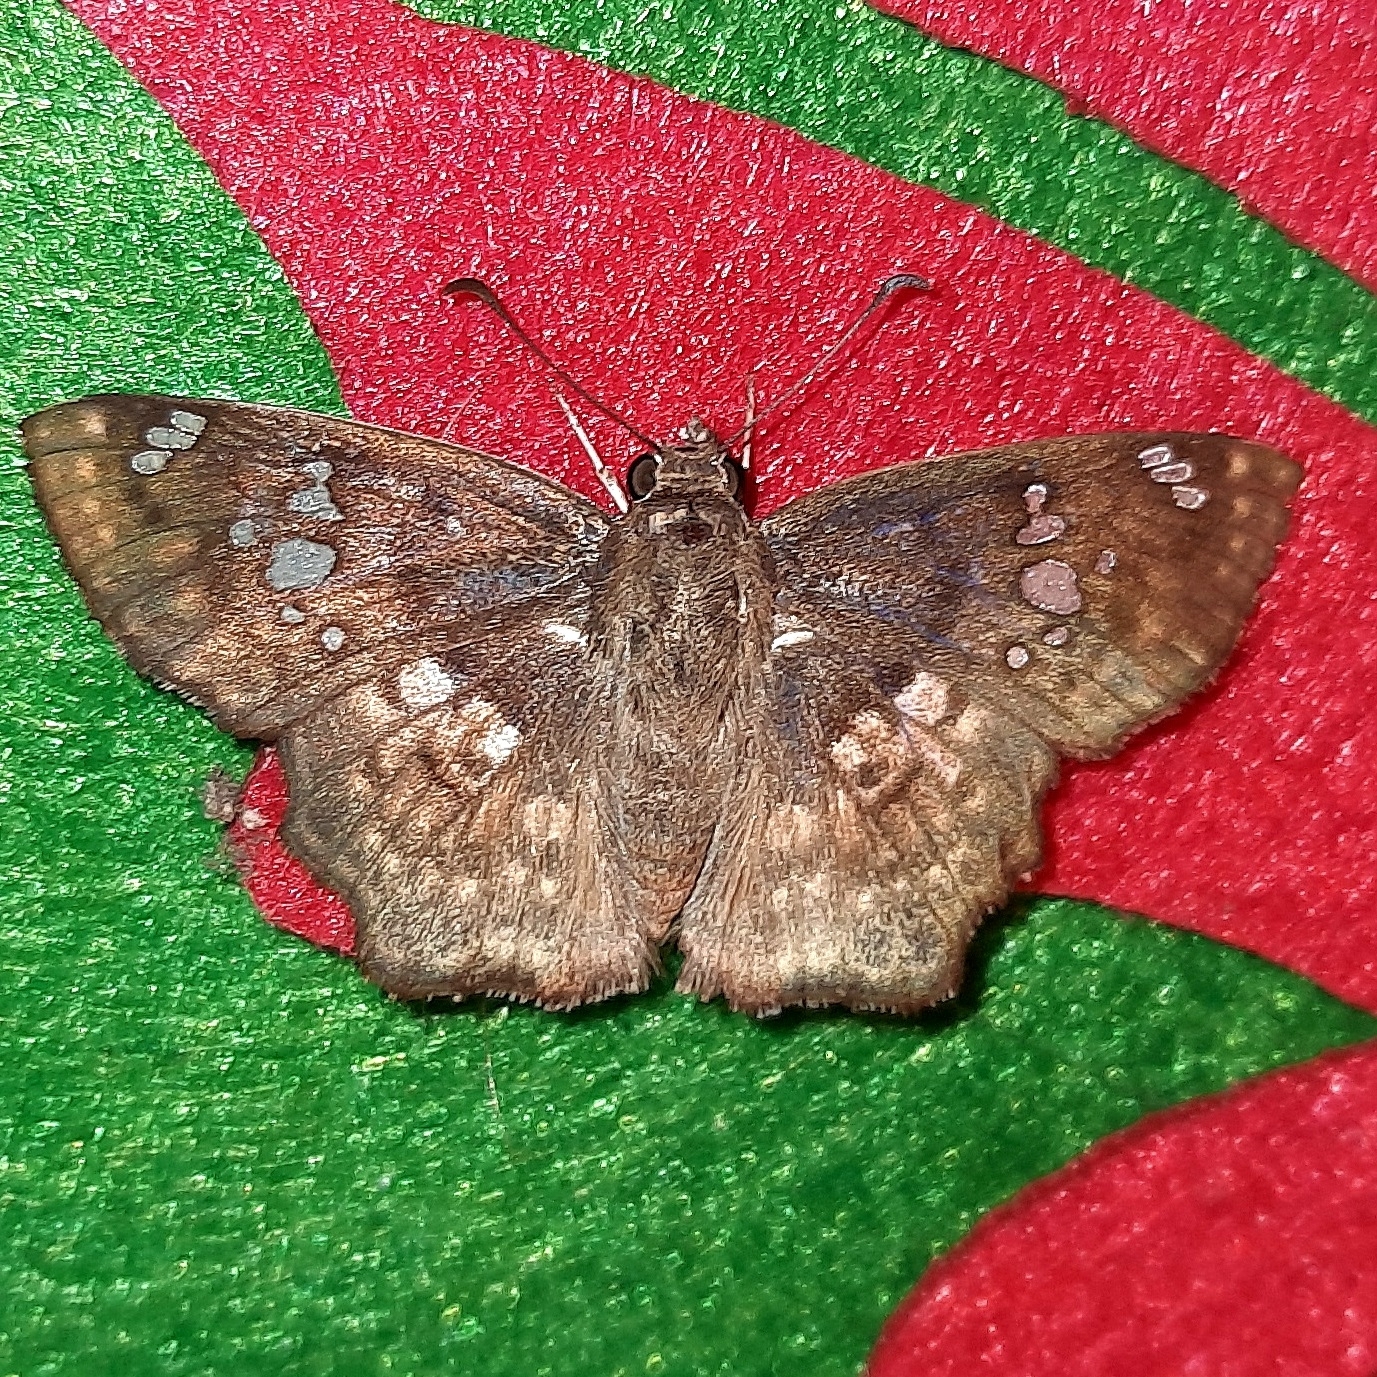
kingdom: Animalia
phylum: Arthropoda
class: Insecta
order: Lepidoptera
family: Hesperiidae
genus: Caprona
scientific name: Caprona ransonnettii
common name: Golden angle
